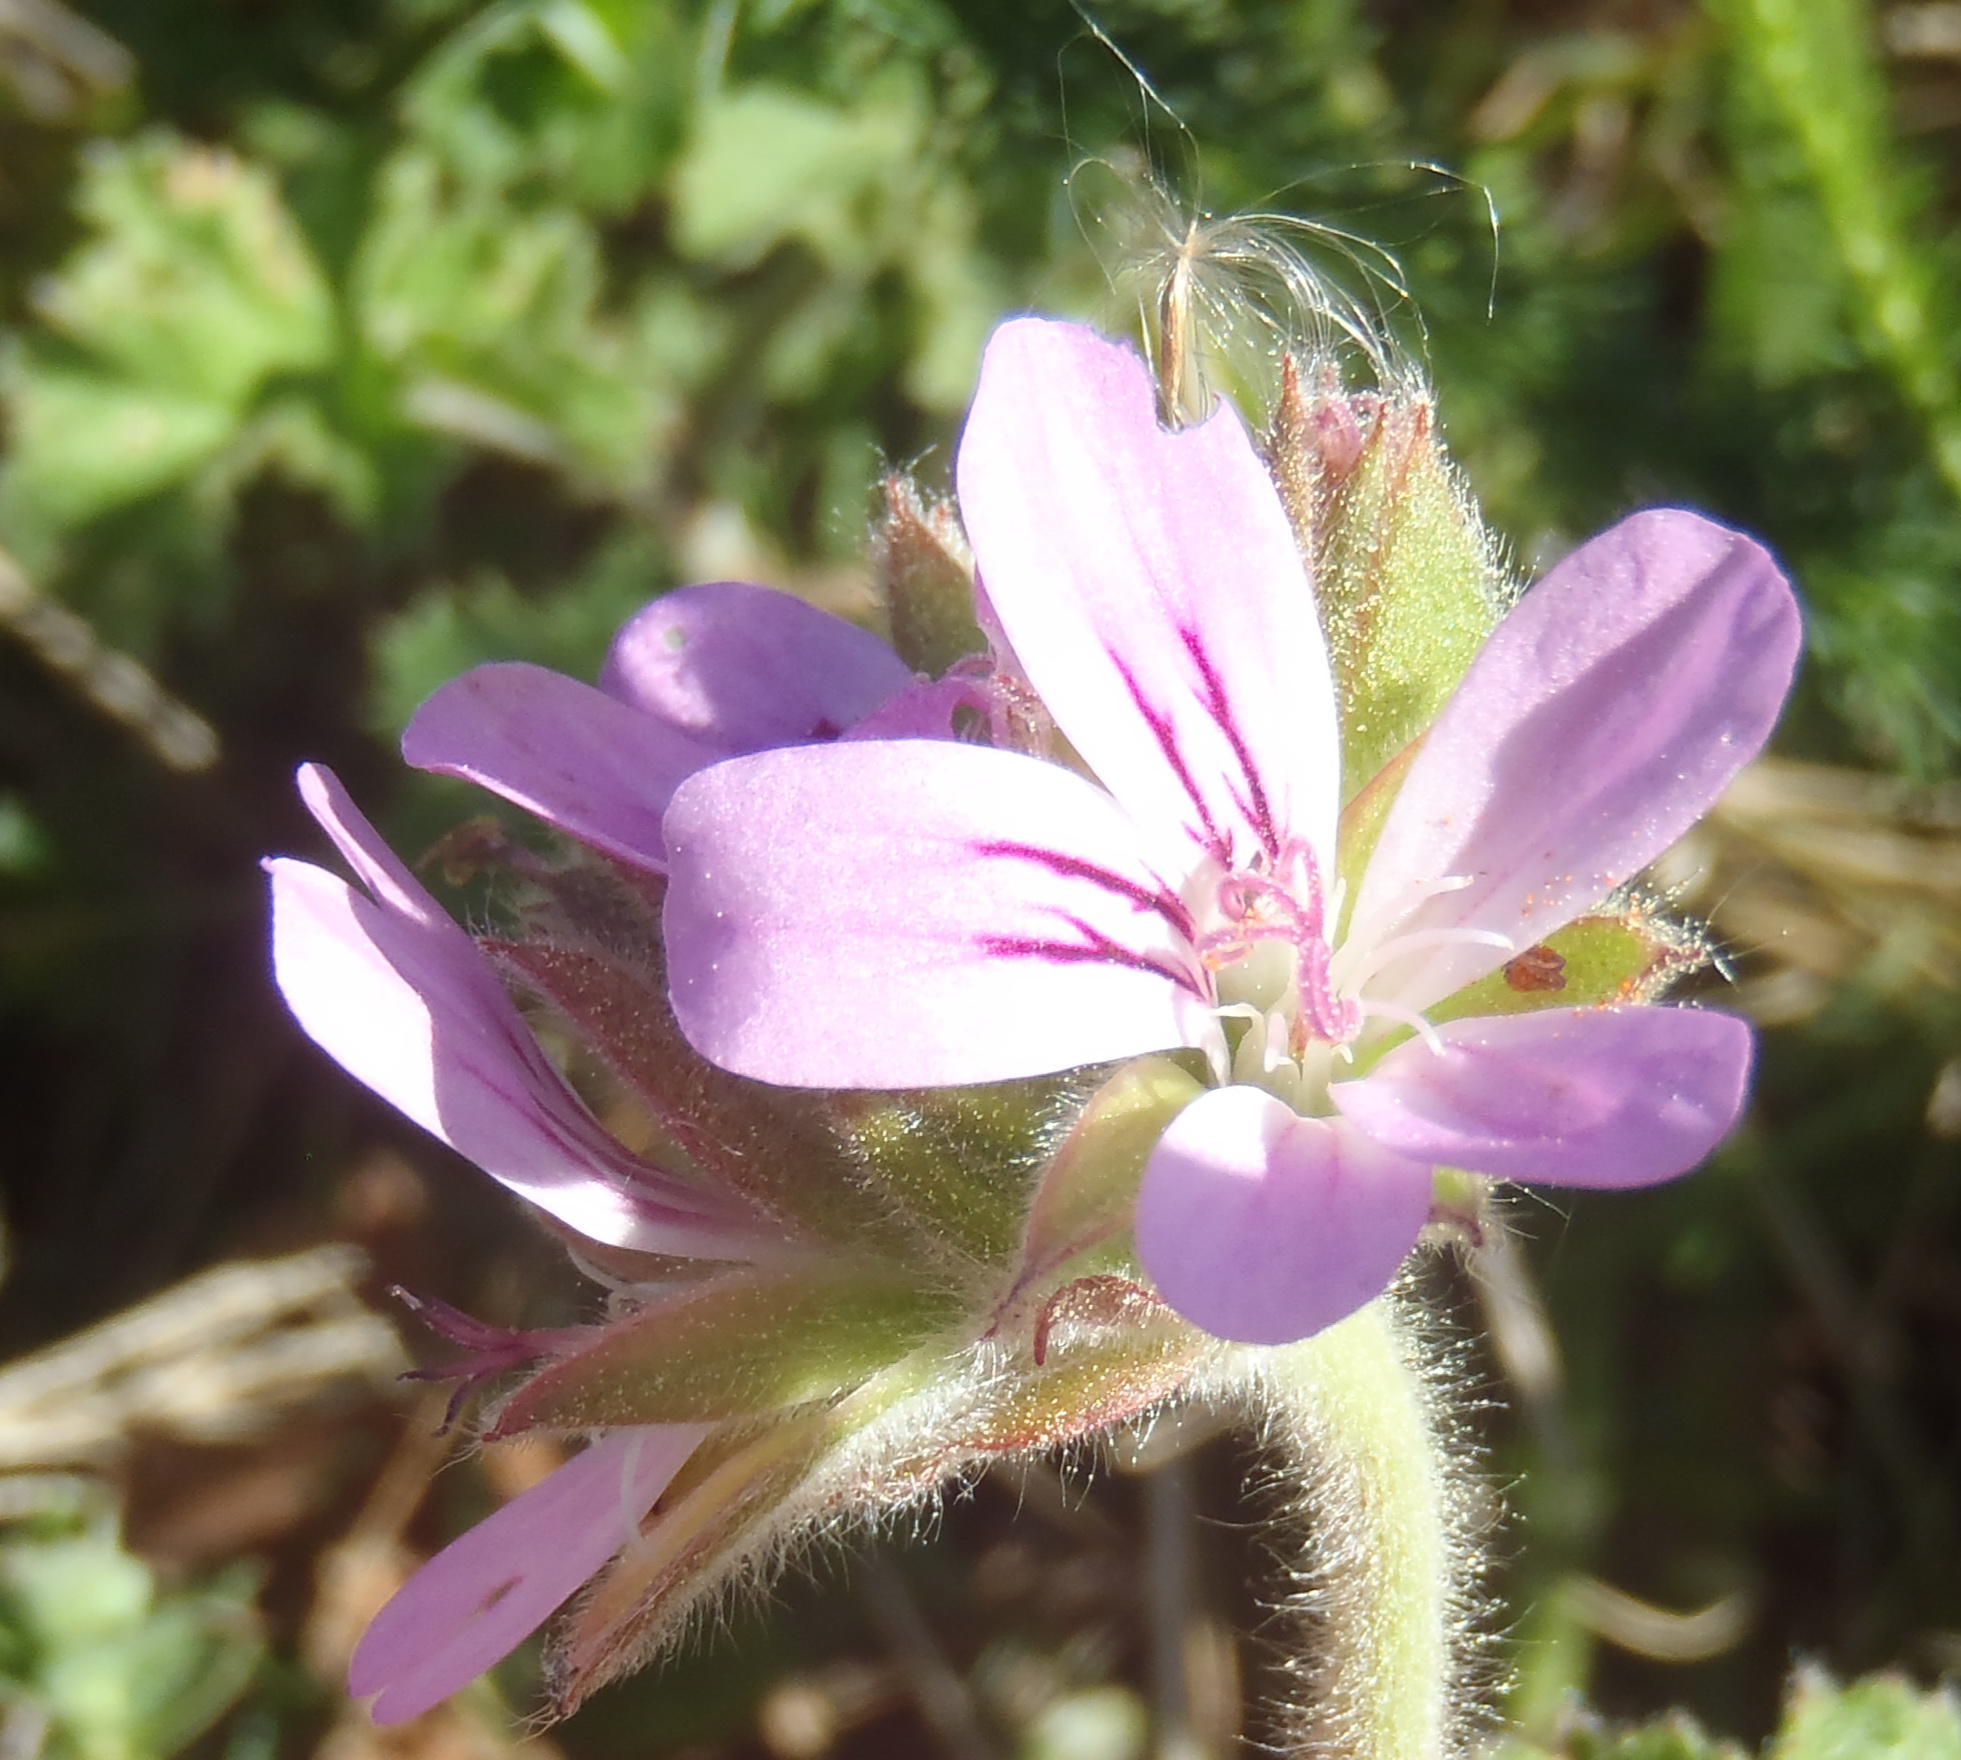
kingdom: Plantae
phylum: Tracheophyta
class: Magnoliopsida
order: Geraniales
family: Geraniaceae
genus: Pelargonium
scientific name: Pelargonium capitatum
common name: Rose scented geranium
